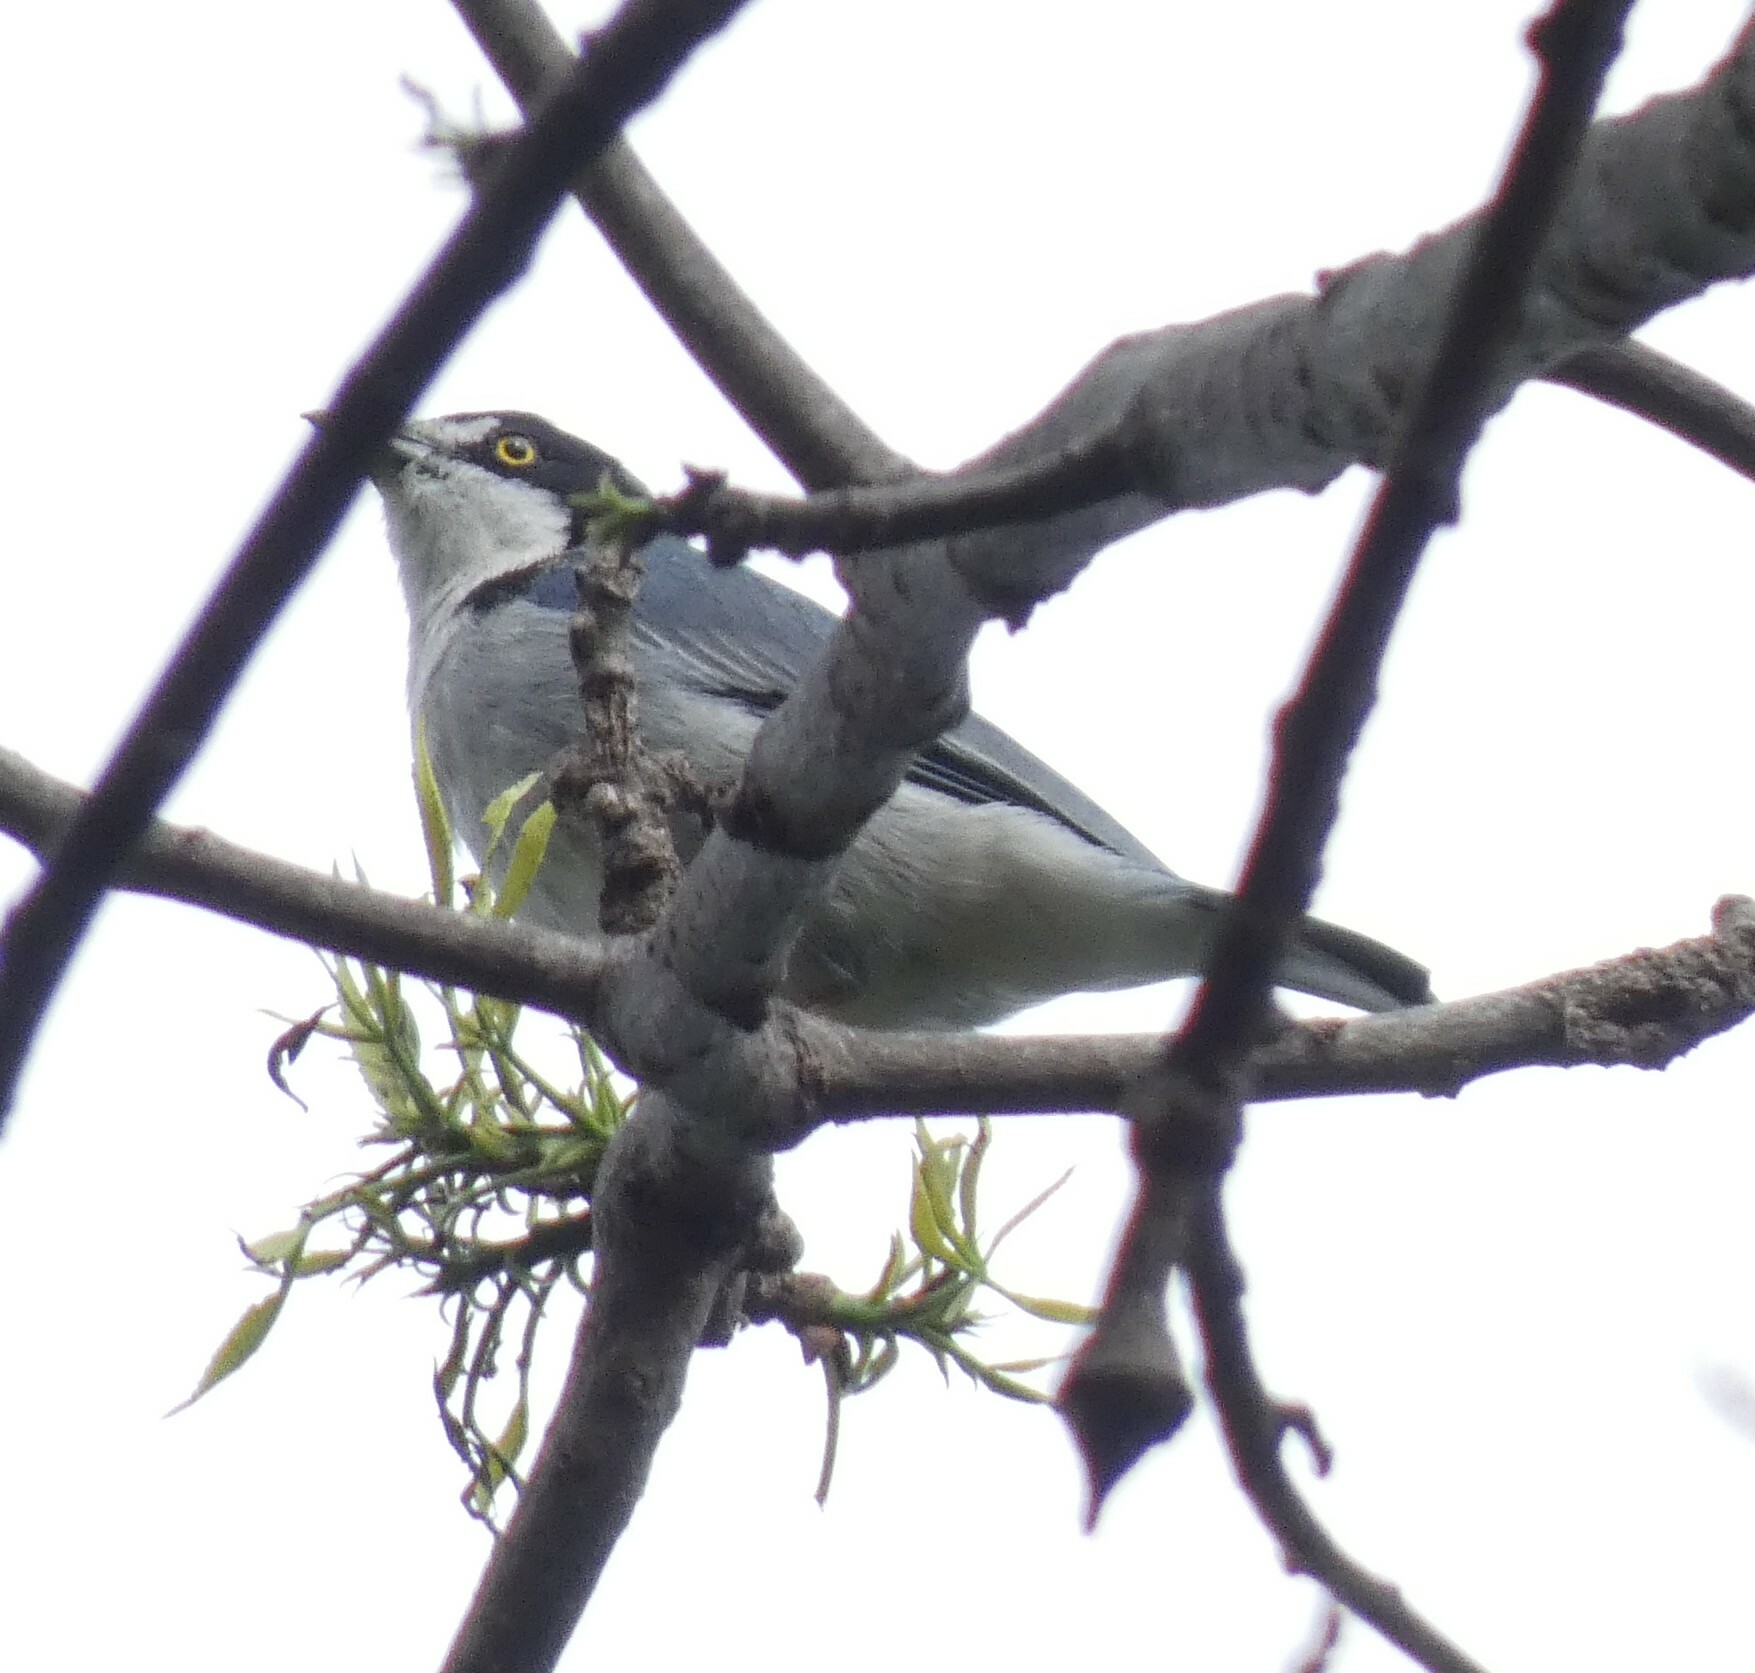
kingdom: Animalia
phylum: Chordata
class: Aves
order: Passeriformes
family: Thraupidae
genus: Nemosia
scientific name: Nemosia pileata
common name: Hooded tanager
